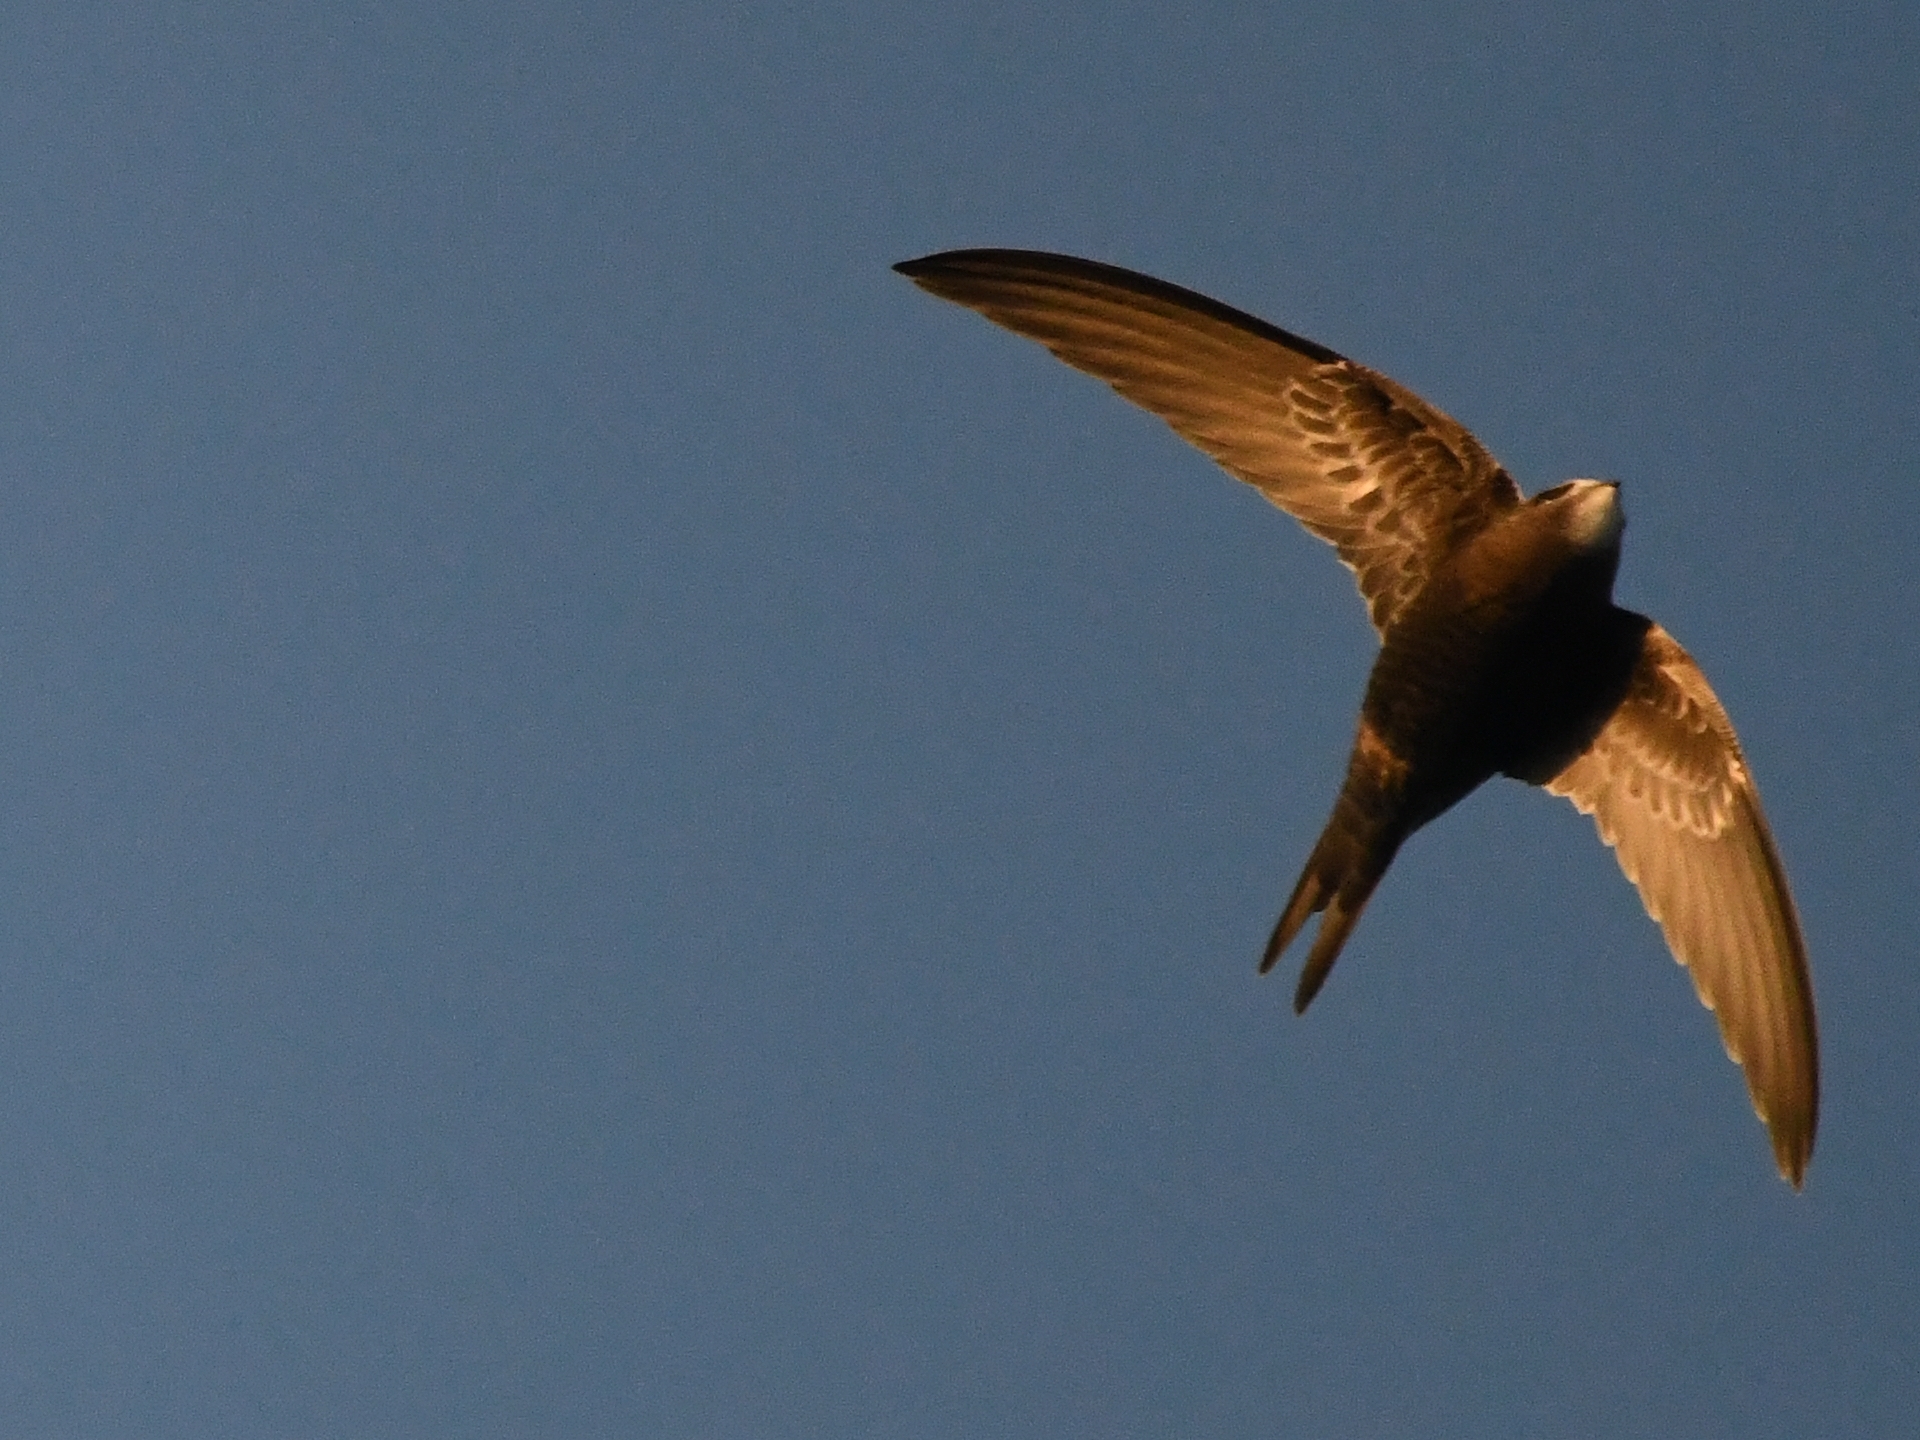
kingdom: Animalia
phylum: Chordata
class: Aves
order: Apodiformes
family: Apodidae
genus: Apus
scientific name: Apus apus
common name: Common swift
